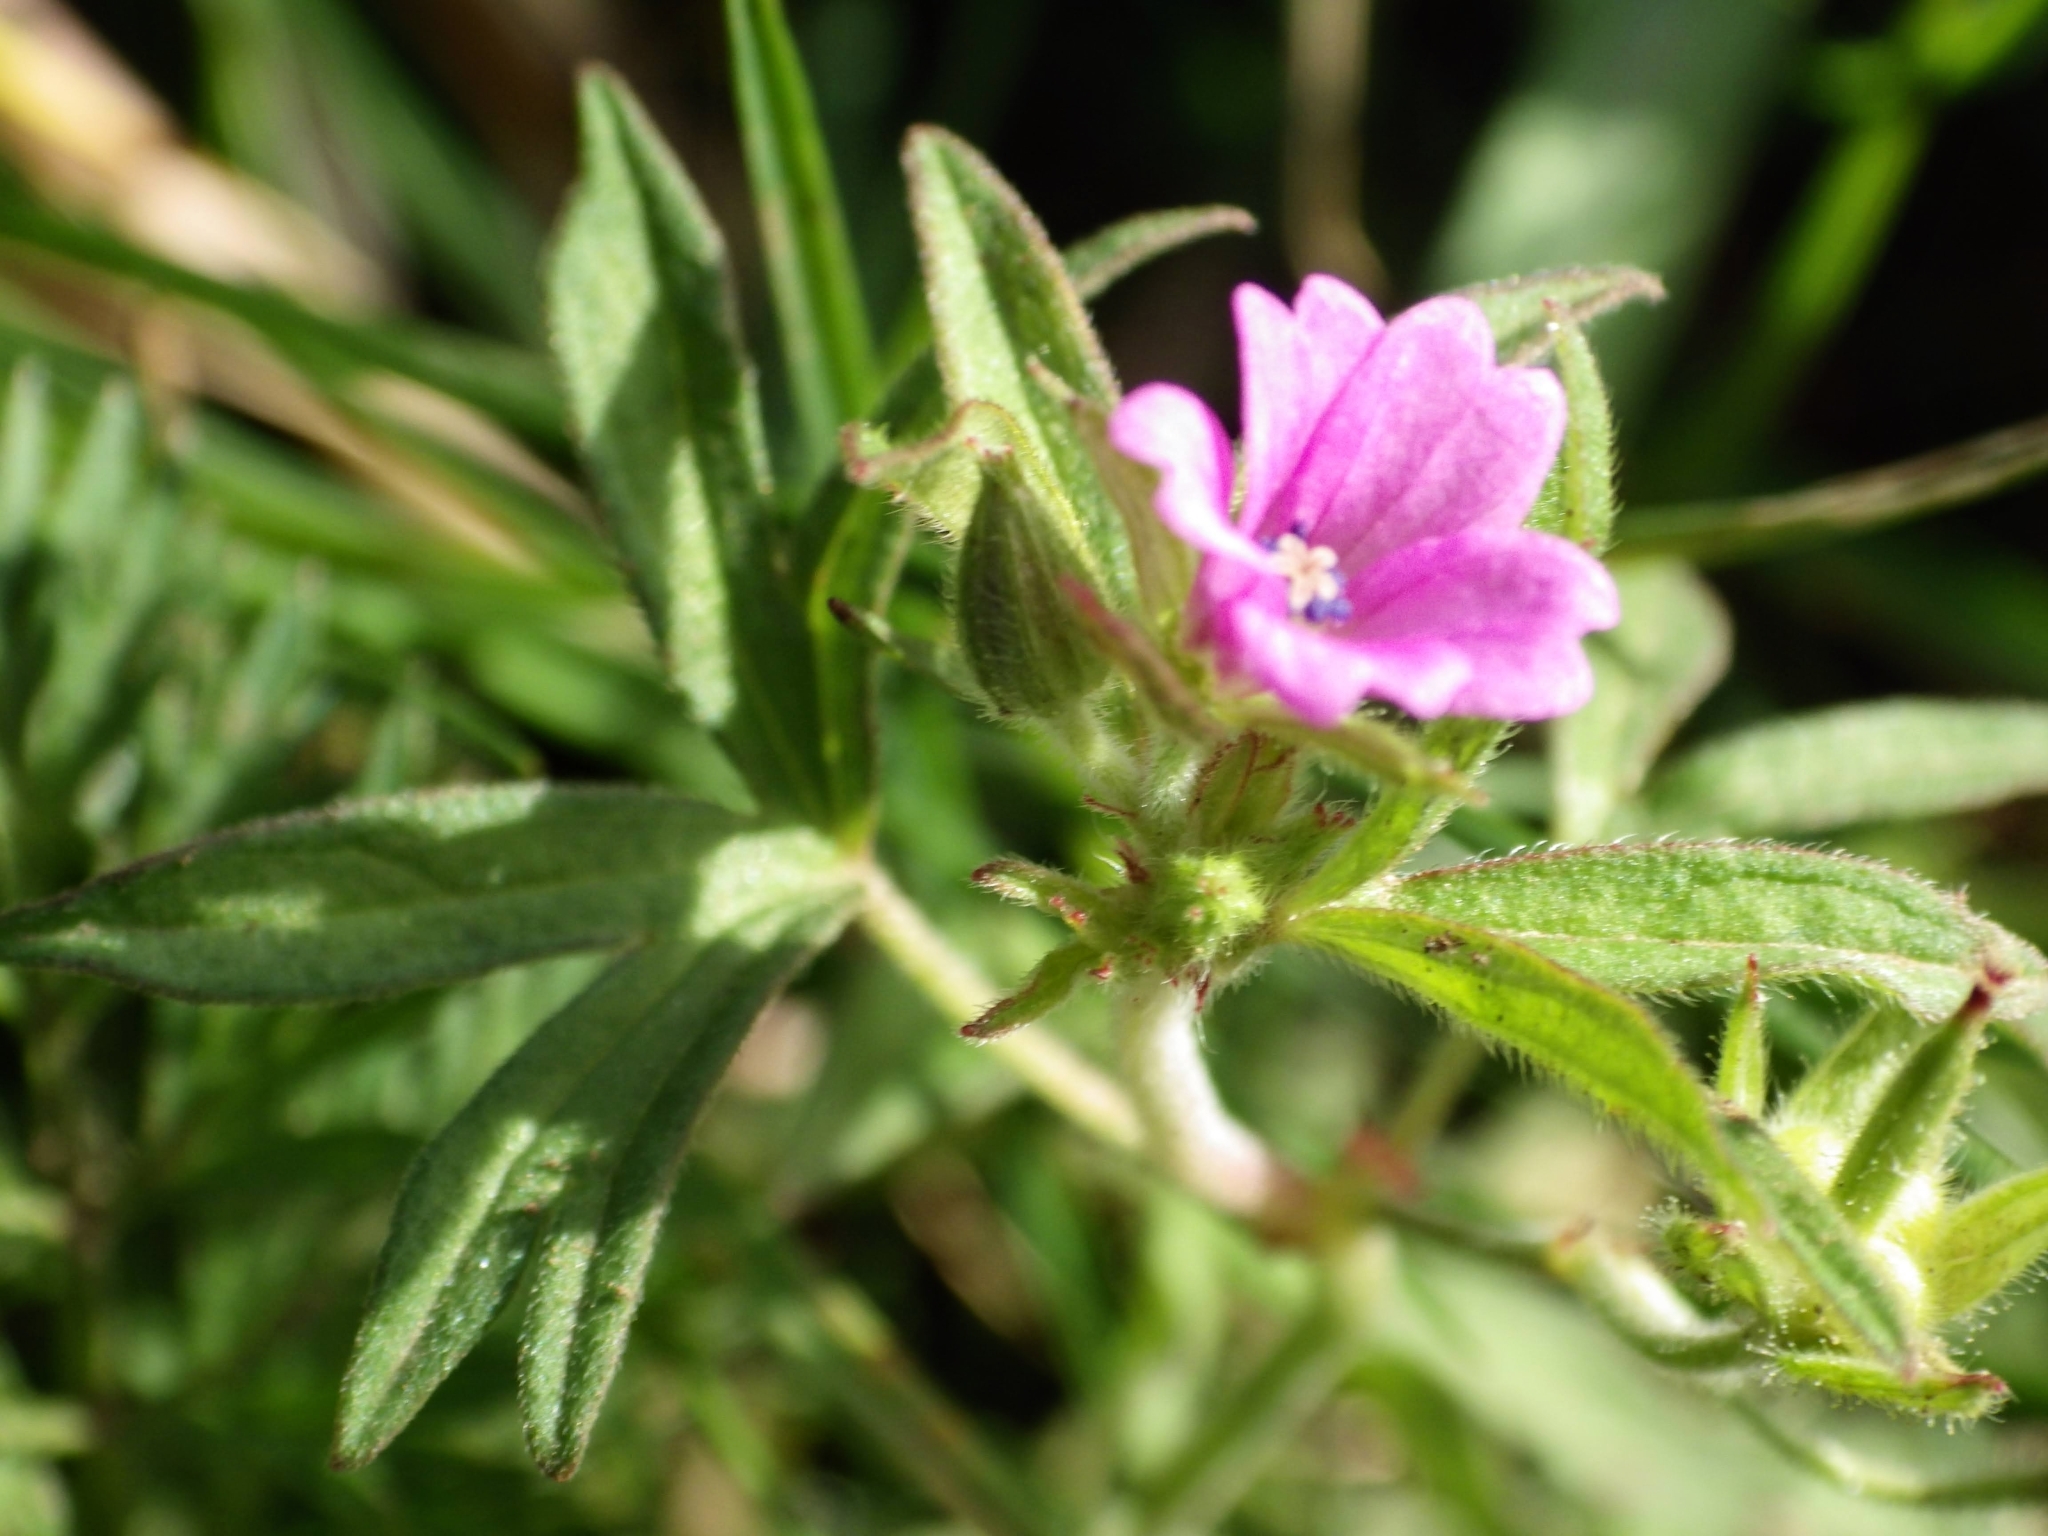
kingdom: Plantae
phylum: Tracheophyta
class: Magnoliopsida
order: Geraniales
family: Geraniaceae
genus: Geranium
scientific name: Geranium dissectum
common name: Cut-leaved crane's-bill
